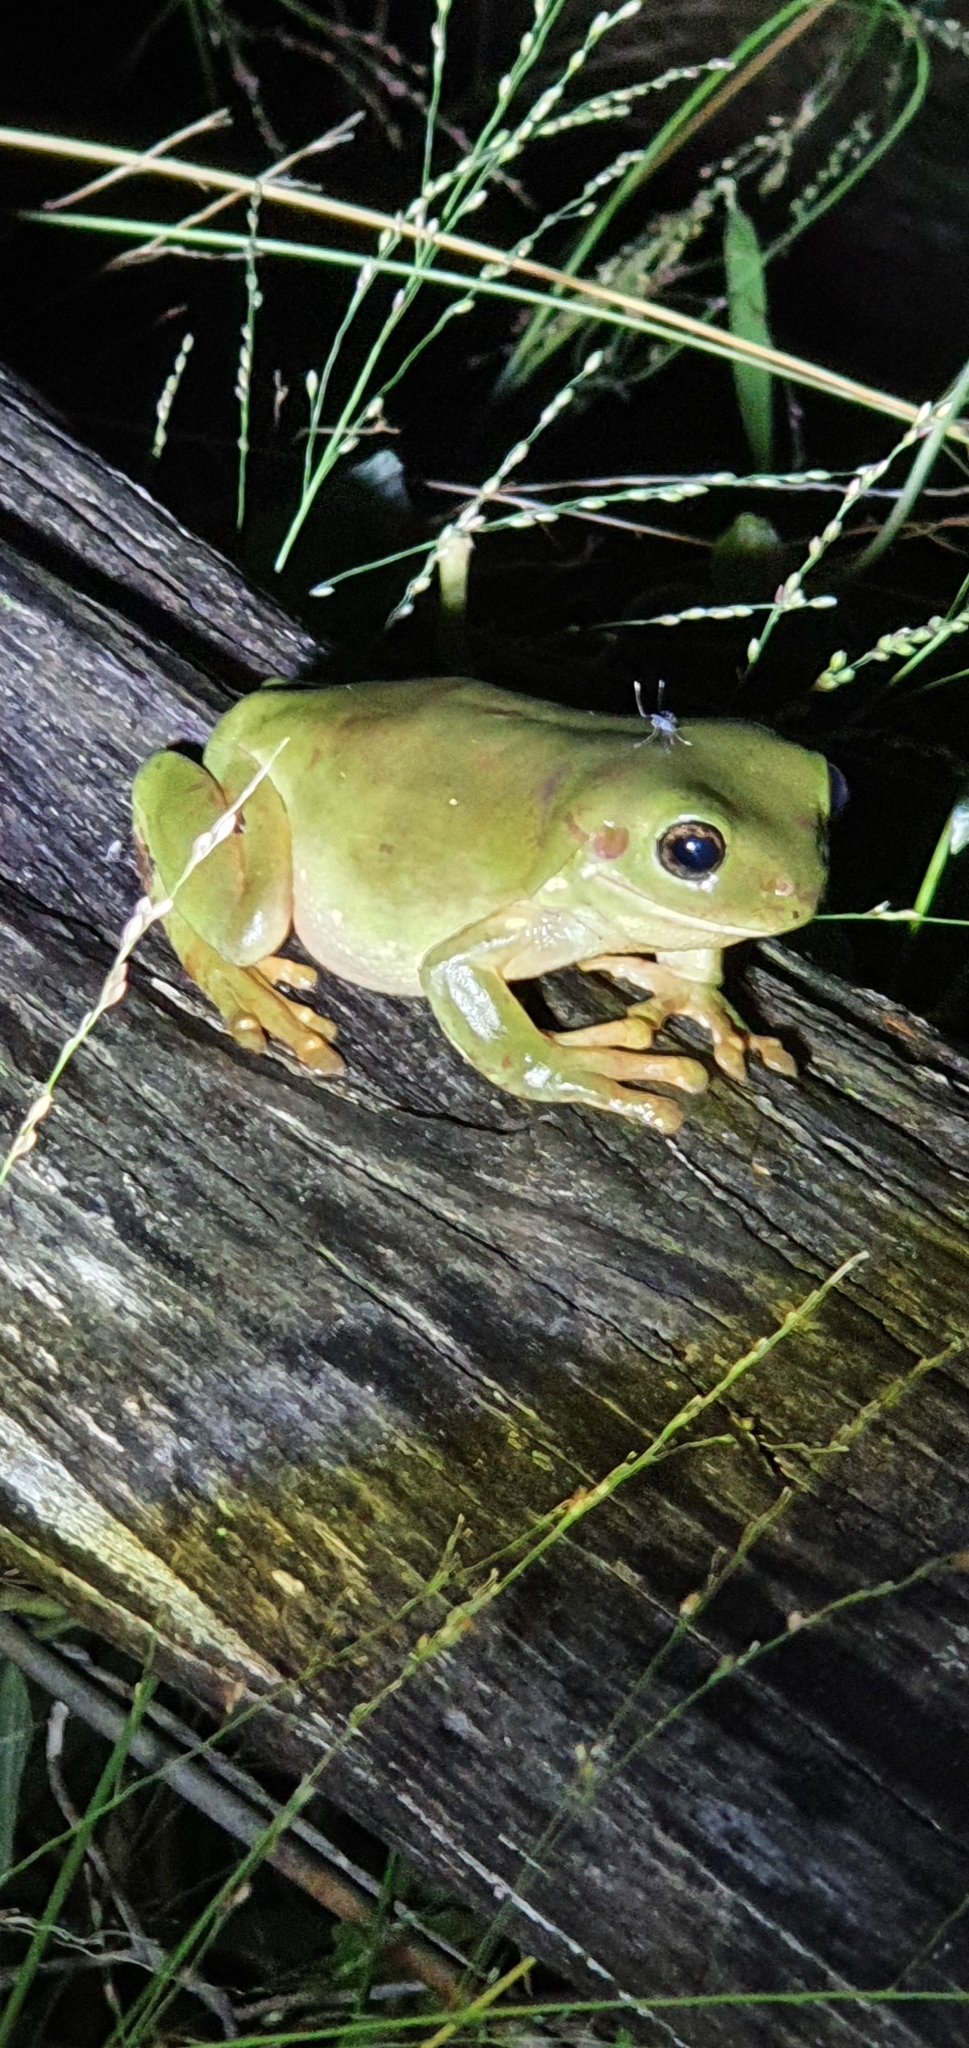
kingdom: Animalia
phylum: Chordata
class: Amphibia
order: Anura
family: Pelodryadidae
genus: Ranoidea
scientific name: Ranoidea caerulea
